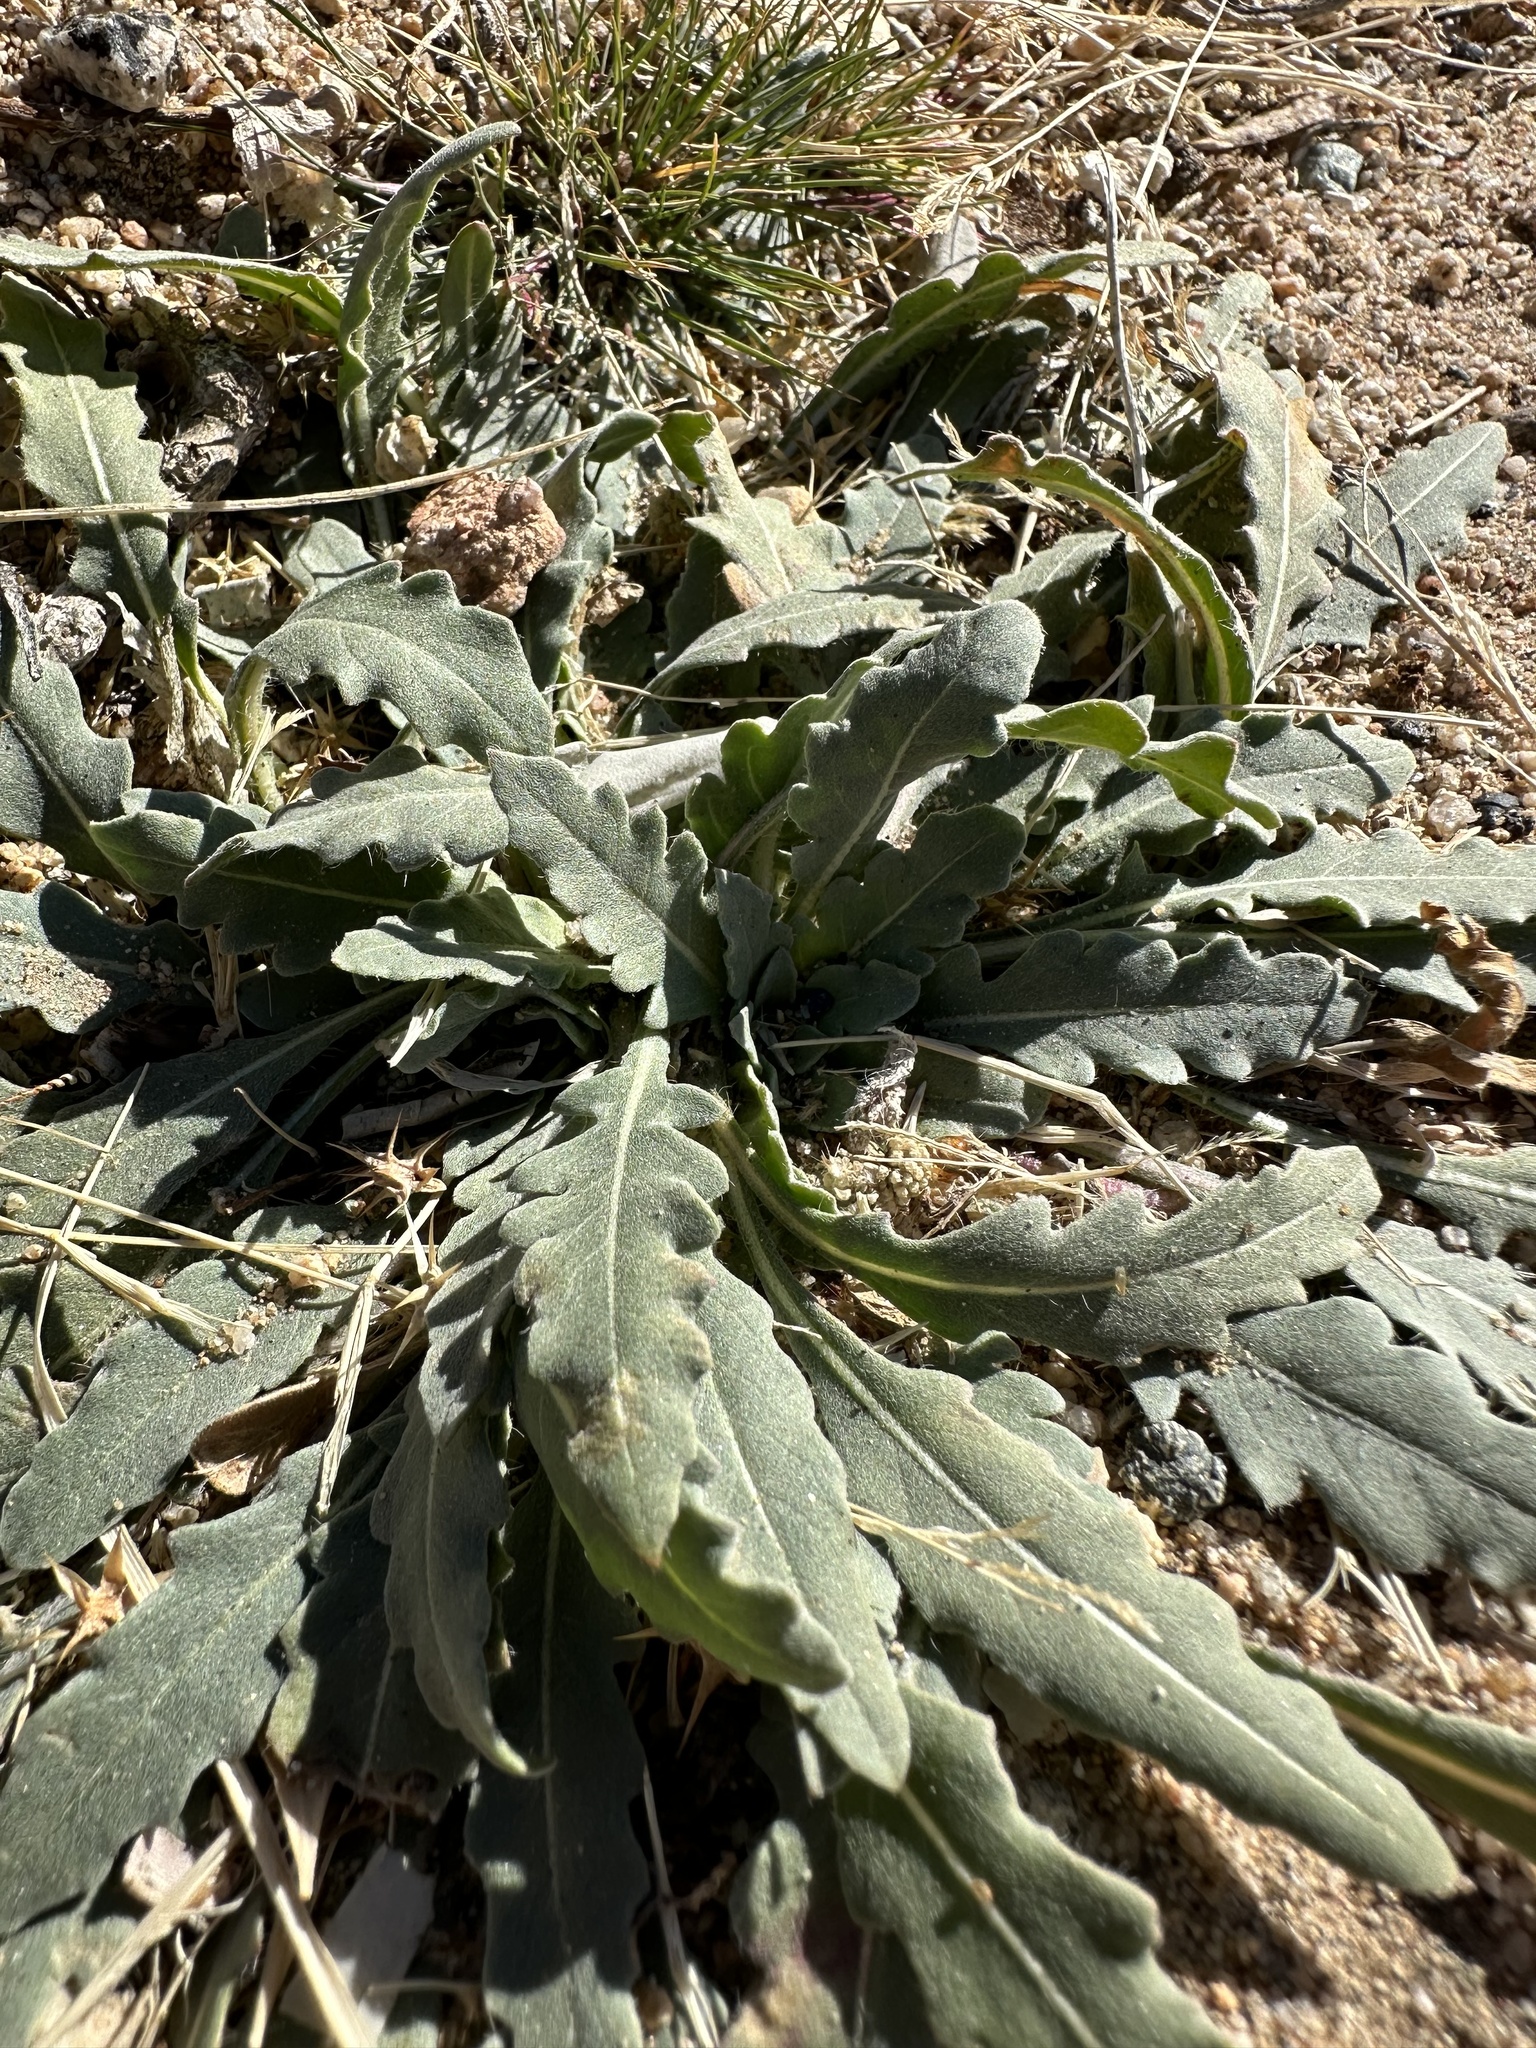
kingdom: Plantae
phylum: Tracheophyta
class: Magnoliopsida
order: Myrtales
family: Onagraceae
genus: Oenothera
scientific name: Oenothera californica
